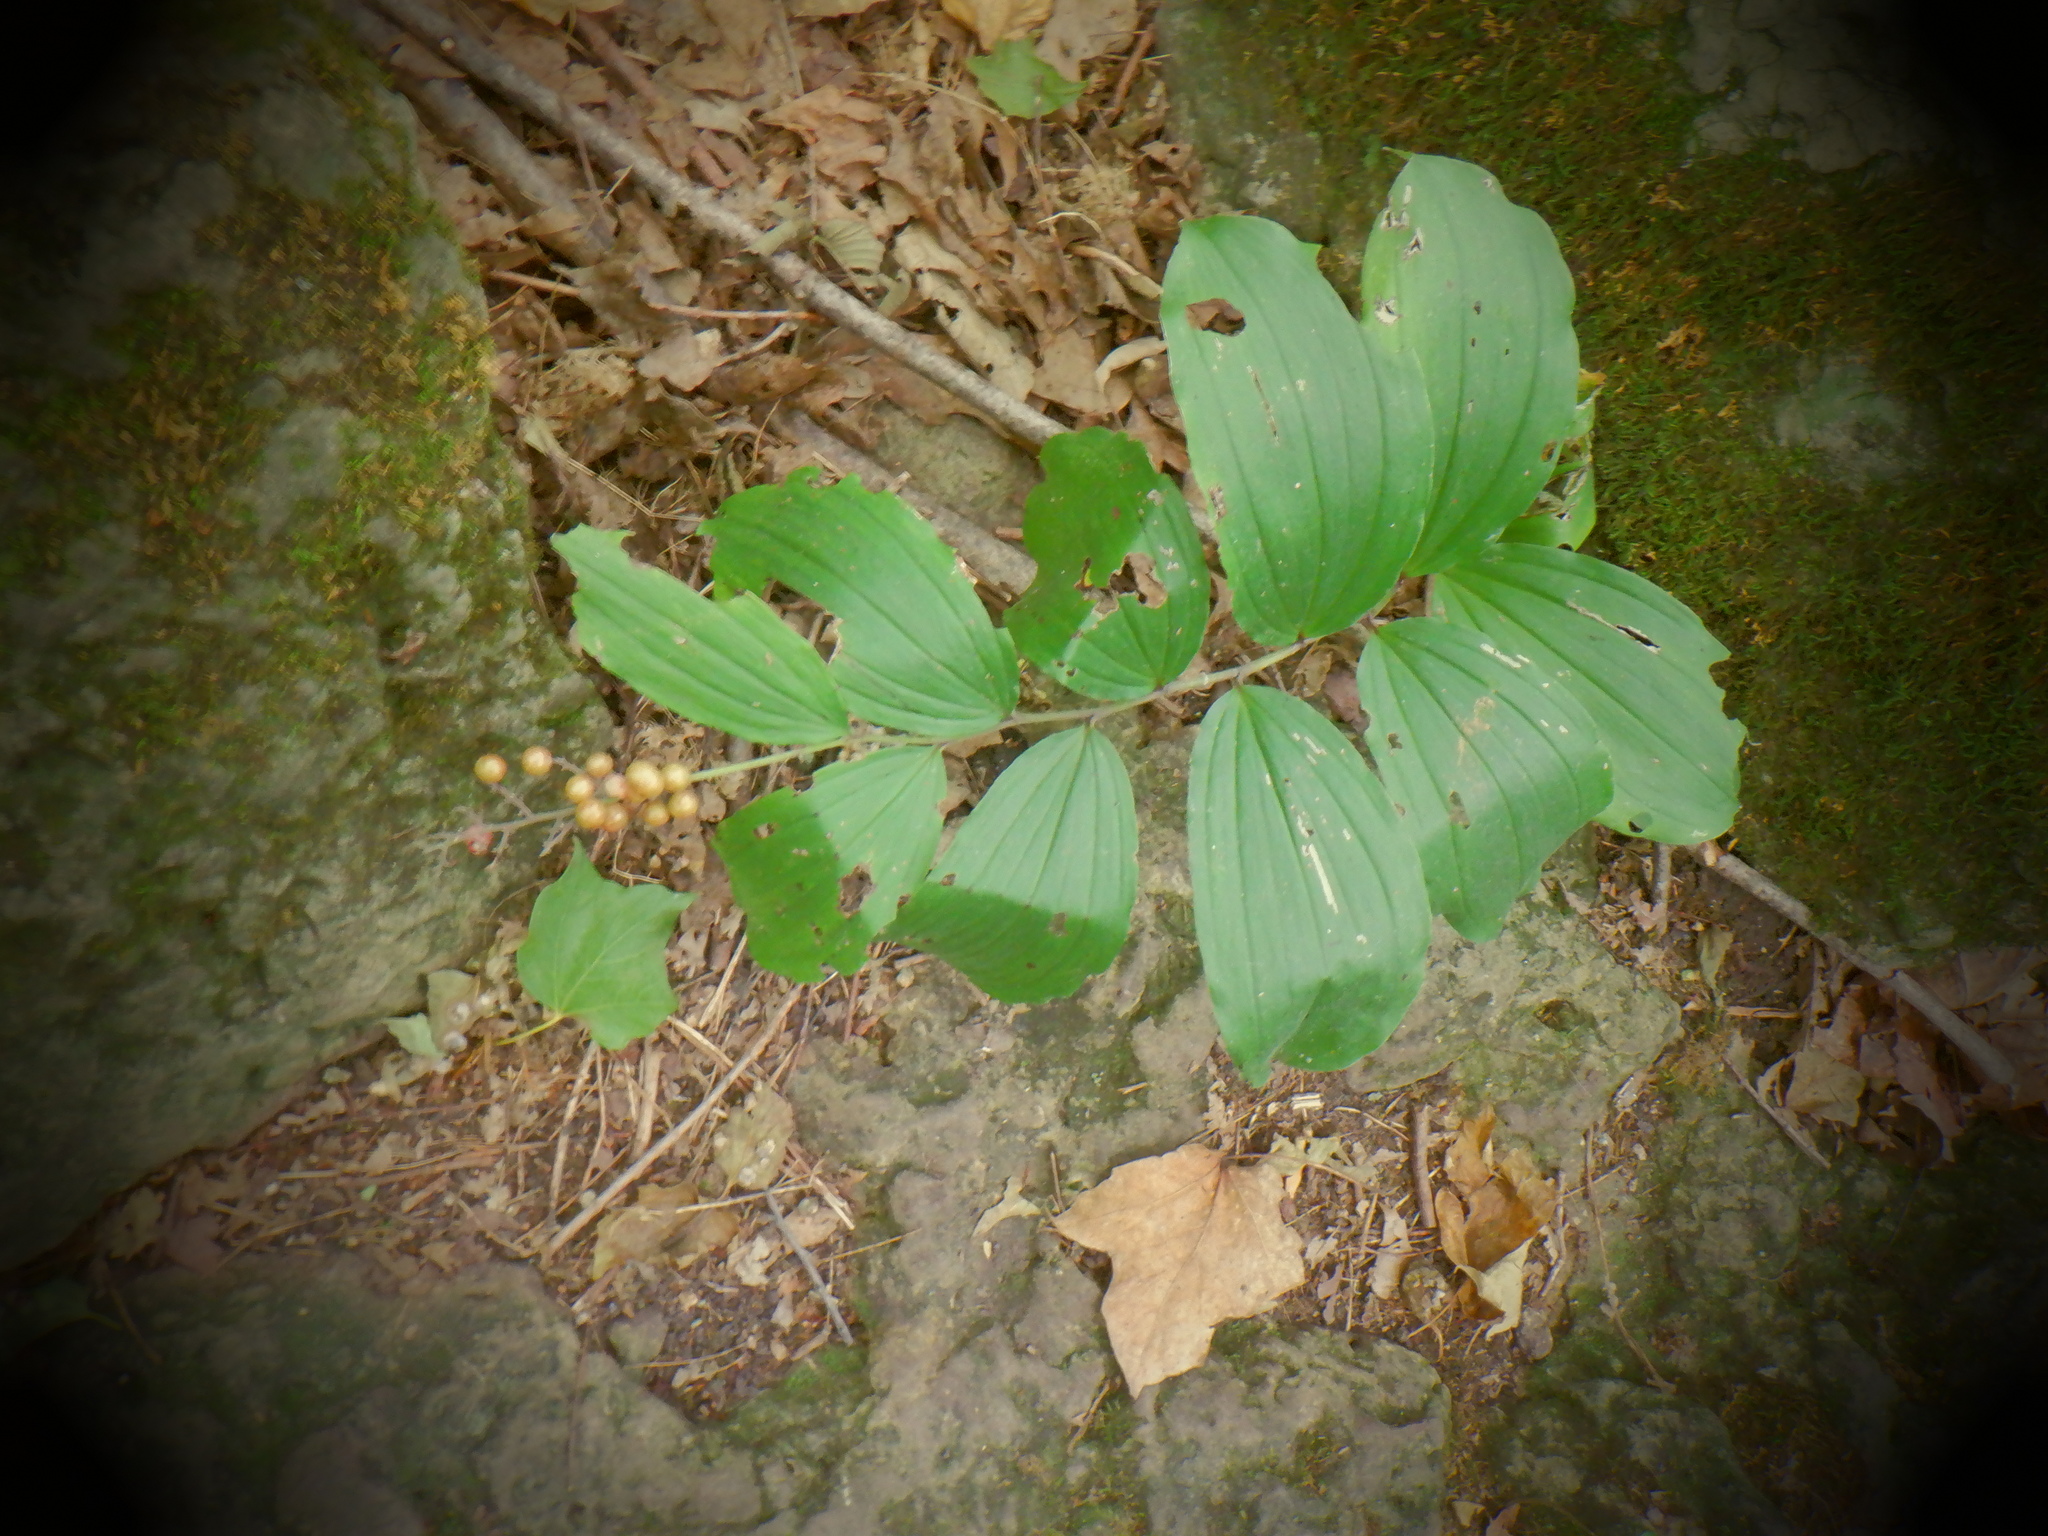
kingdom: Plantae
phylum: Tracheophyta
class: Liliopsida
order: Asparagales
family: Asparagaceae
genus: Maianthemum
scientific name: Maianthemum racemosum
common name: False spikenard
